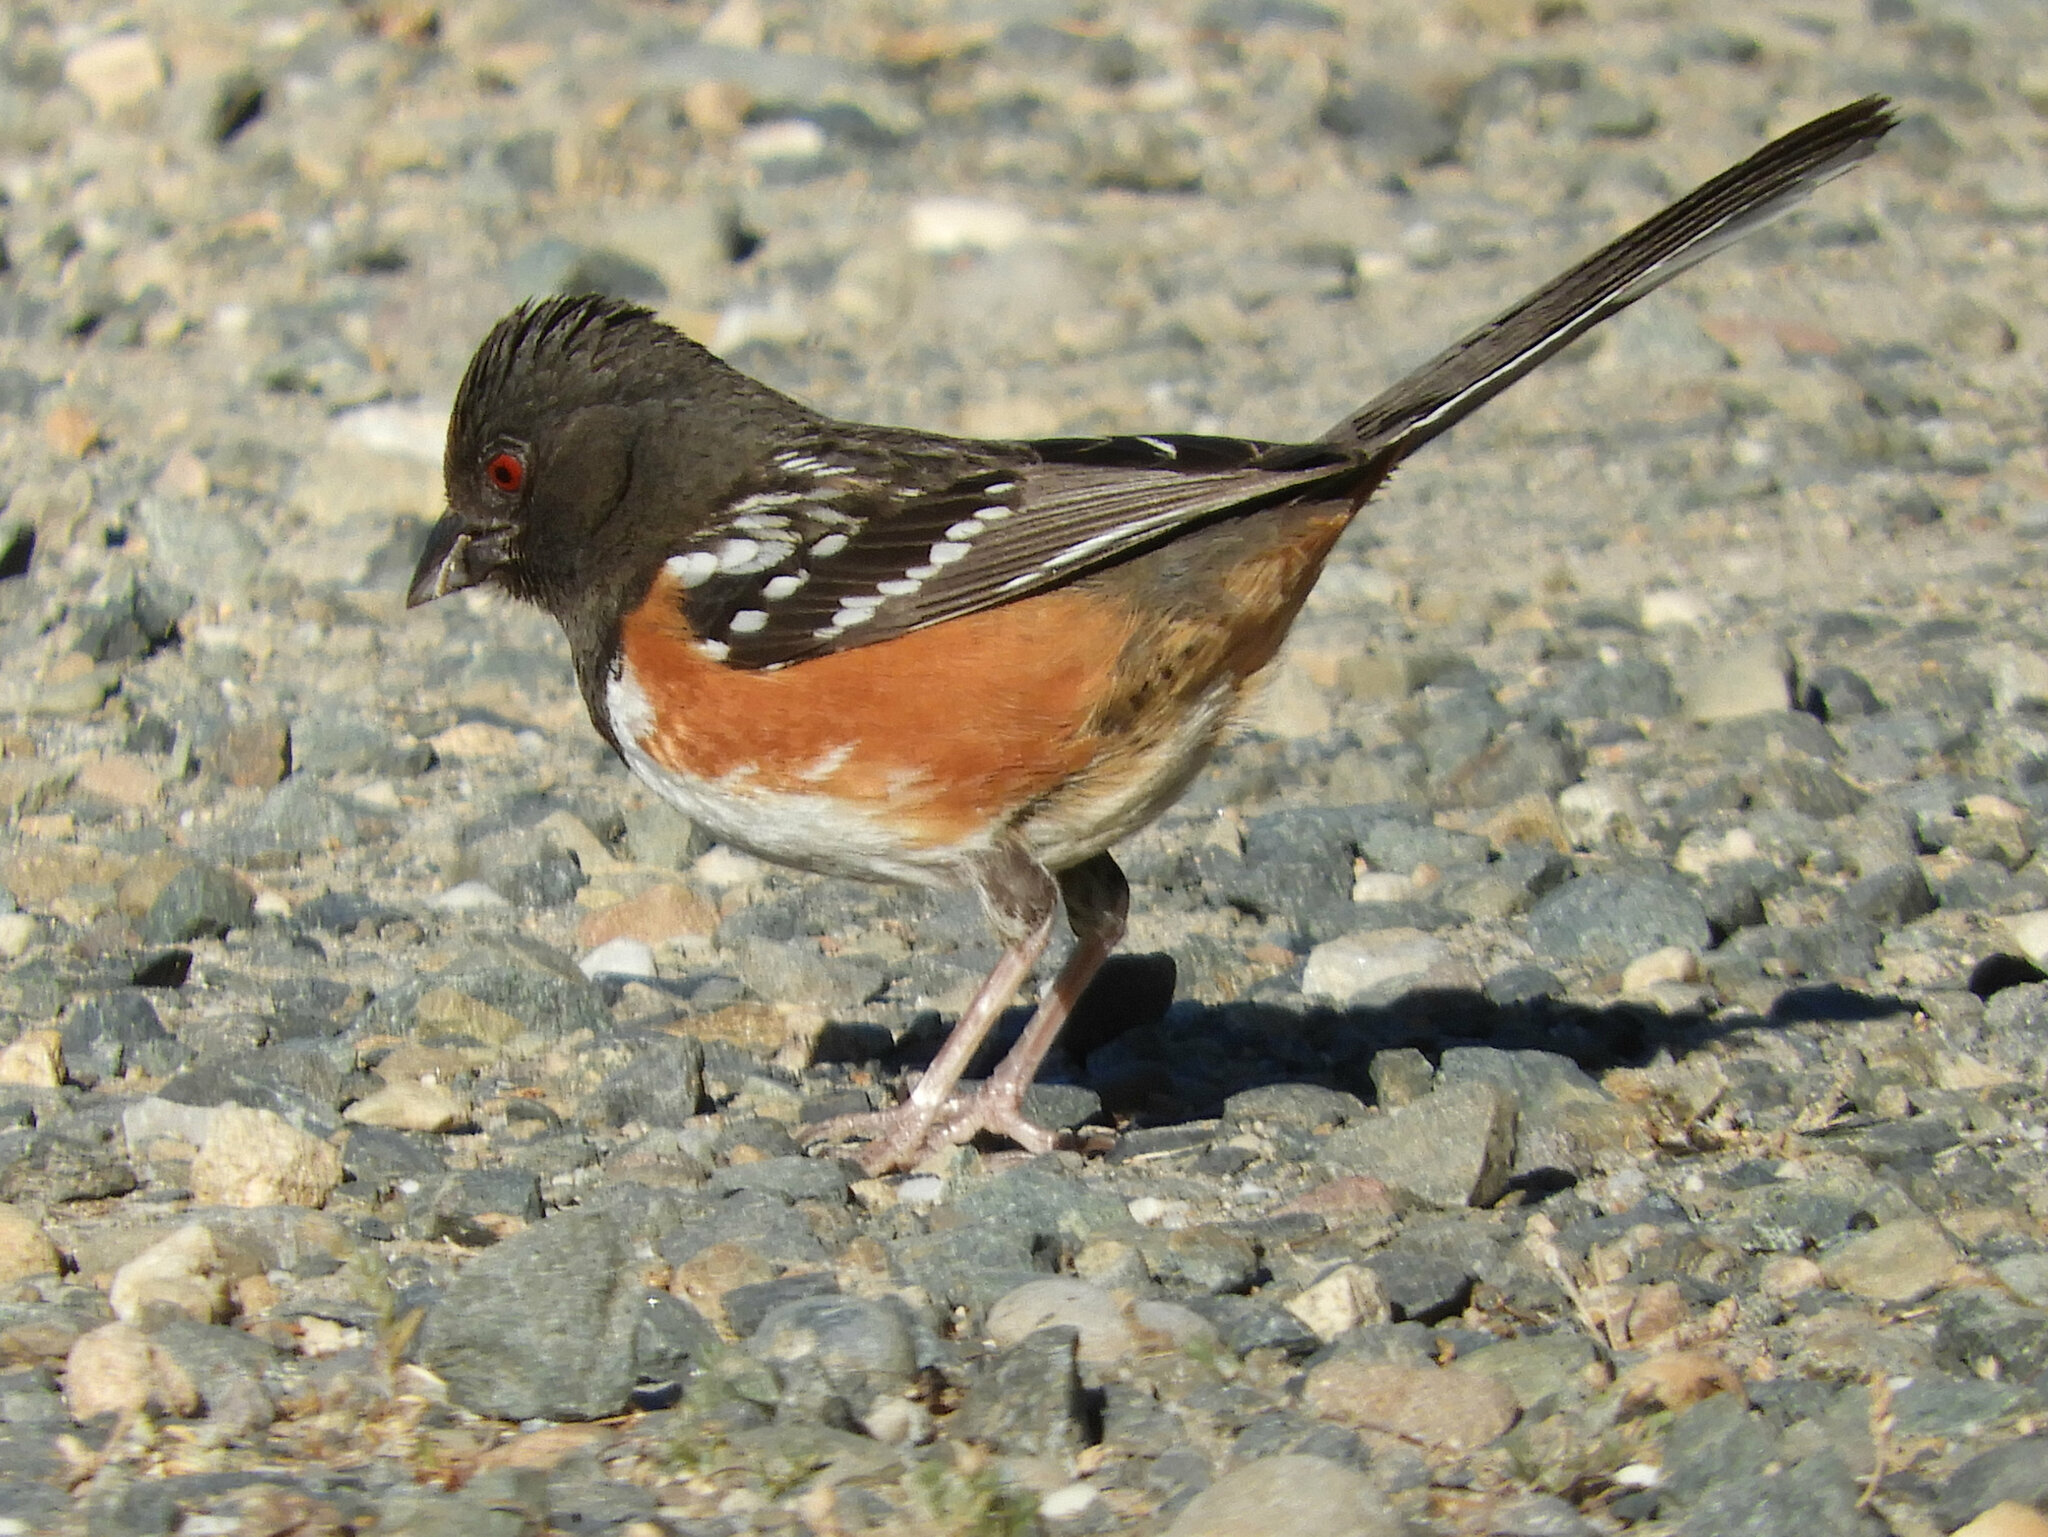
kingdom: Animalia
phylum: Chordata
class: Aves
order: Passeriformes
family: Passerellidae
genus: Pipilo
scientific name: Pipilo maculatus
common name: Spotted towhee
